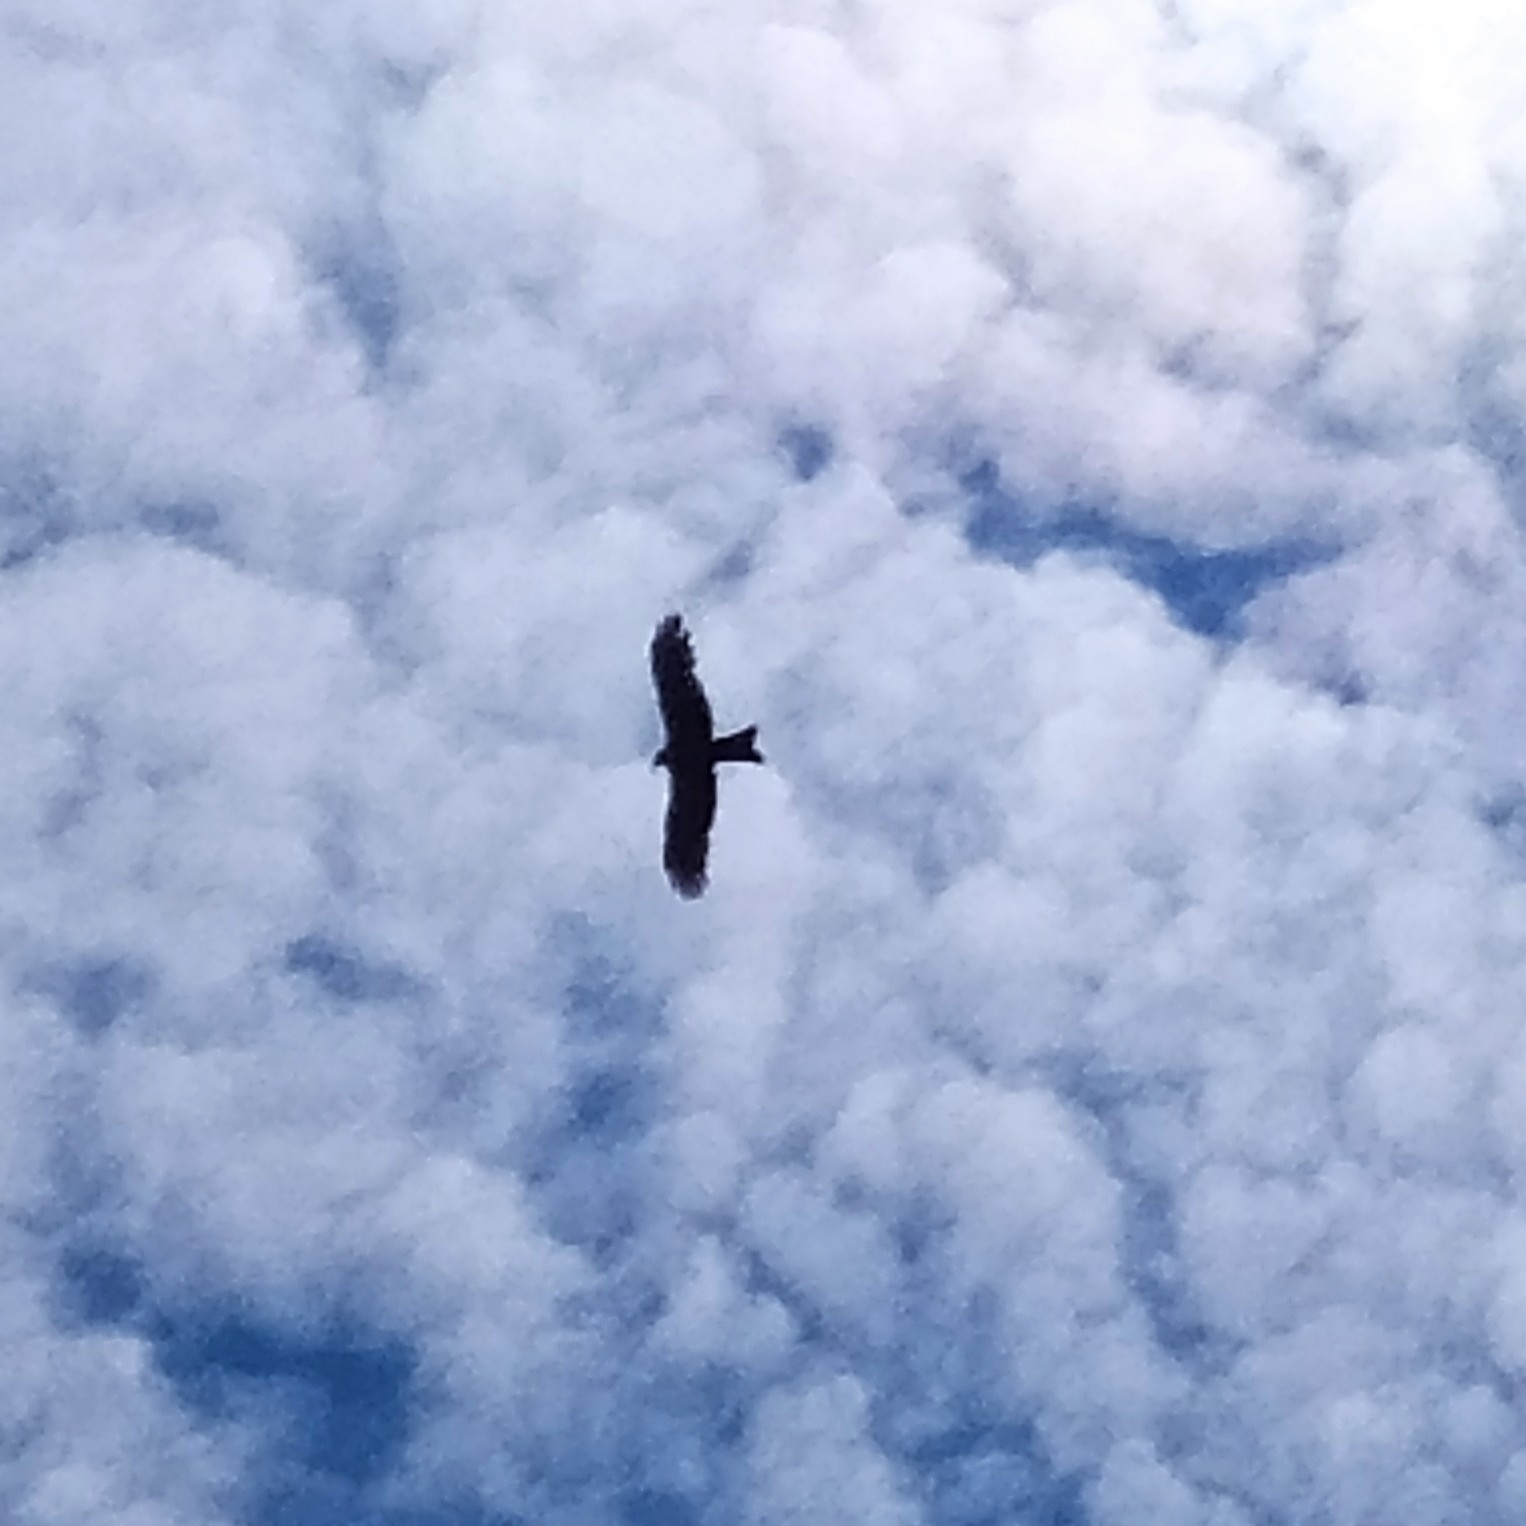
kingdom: Animalia
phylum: Chordata
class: Aves
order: Accipitriformes
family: Accipitridae
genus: Milvus
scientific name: Milvus migrans
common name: Black kite
